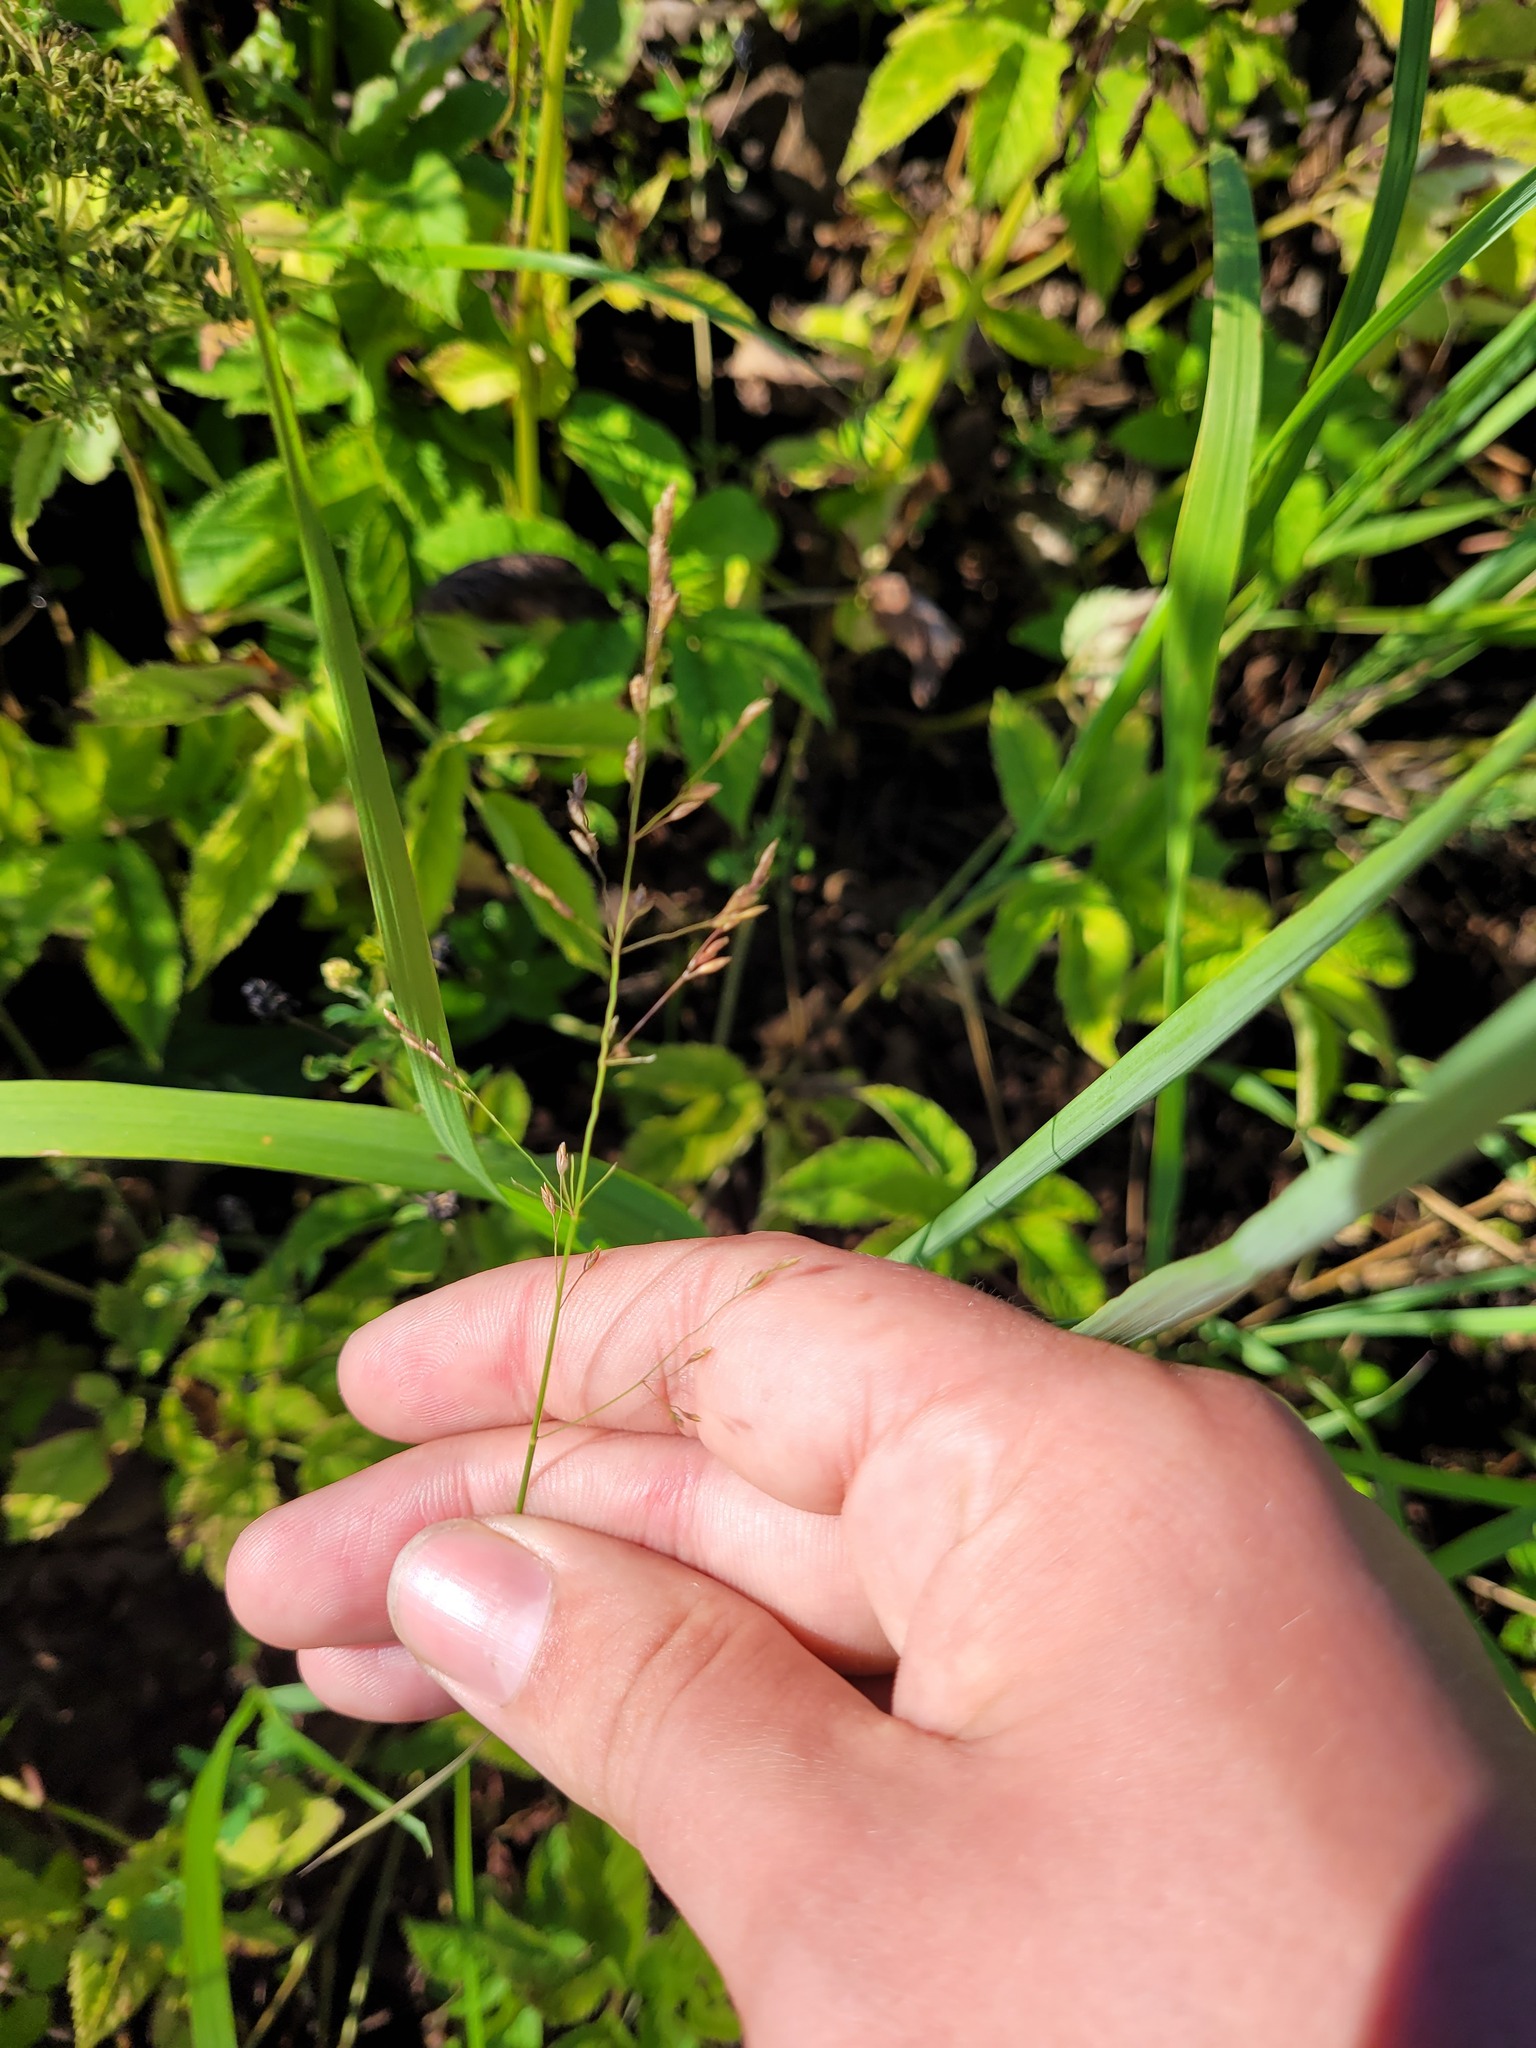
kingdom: Plantae
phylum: Tracheophyta
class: Liliopsida
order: Poales
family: Poaceae
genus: Poa
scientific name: Poa palustris
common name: Swamp meadow-grass
